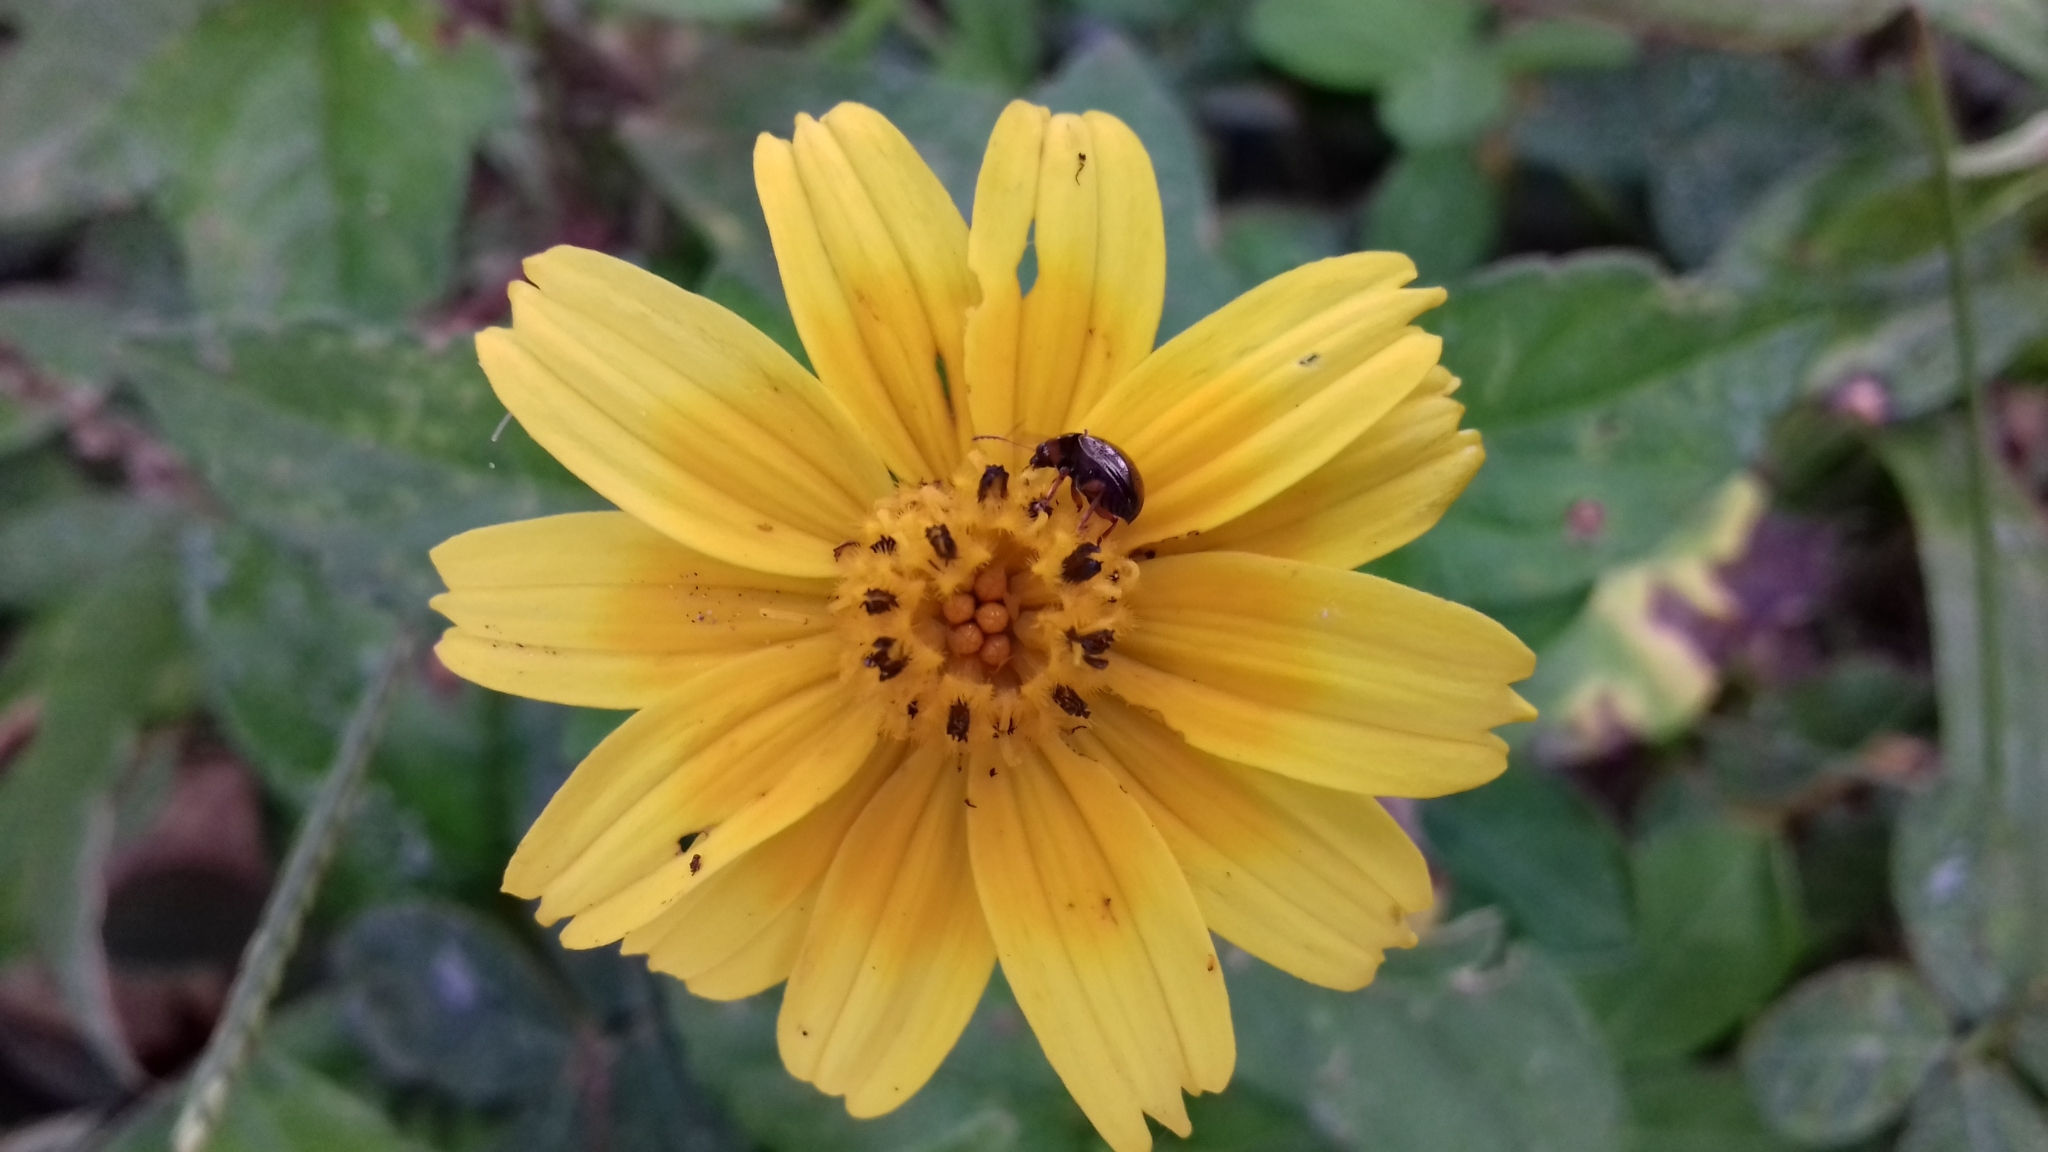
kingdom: Plantae
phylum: Tracheophyta
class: Magnoliopsida
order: Asterales
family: Asteraceae
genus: Sphagneticola
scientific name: Sphagneticola trilobata
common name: Bay biscayne creeping-oxeye
